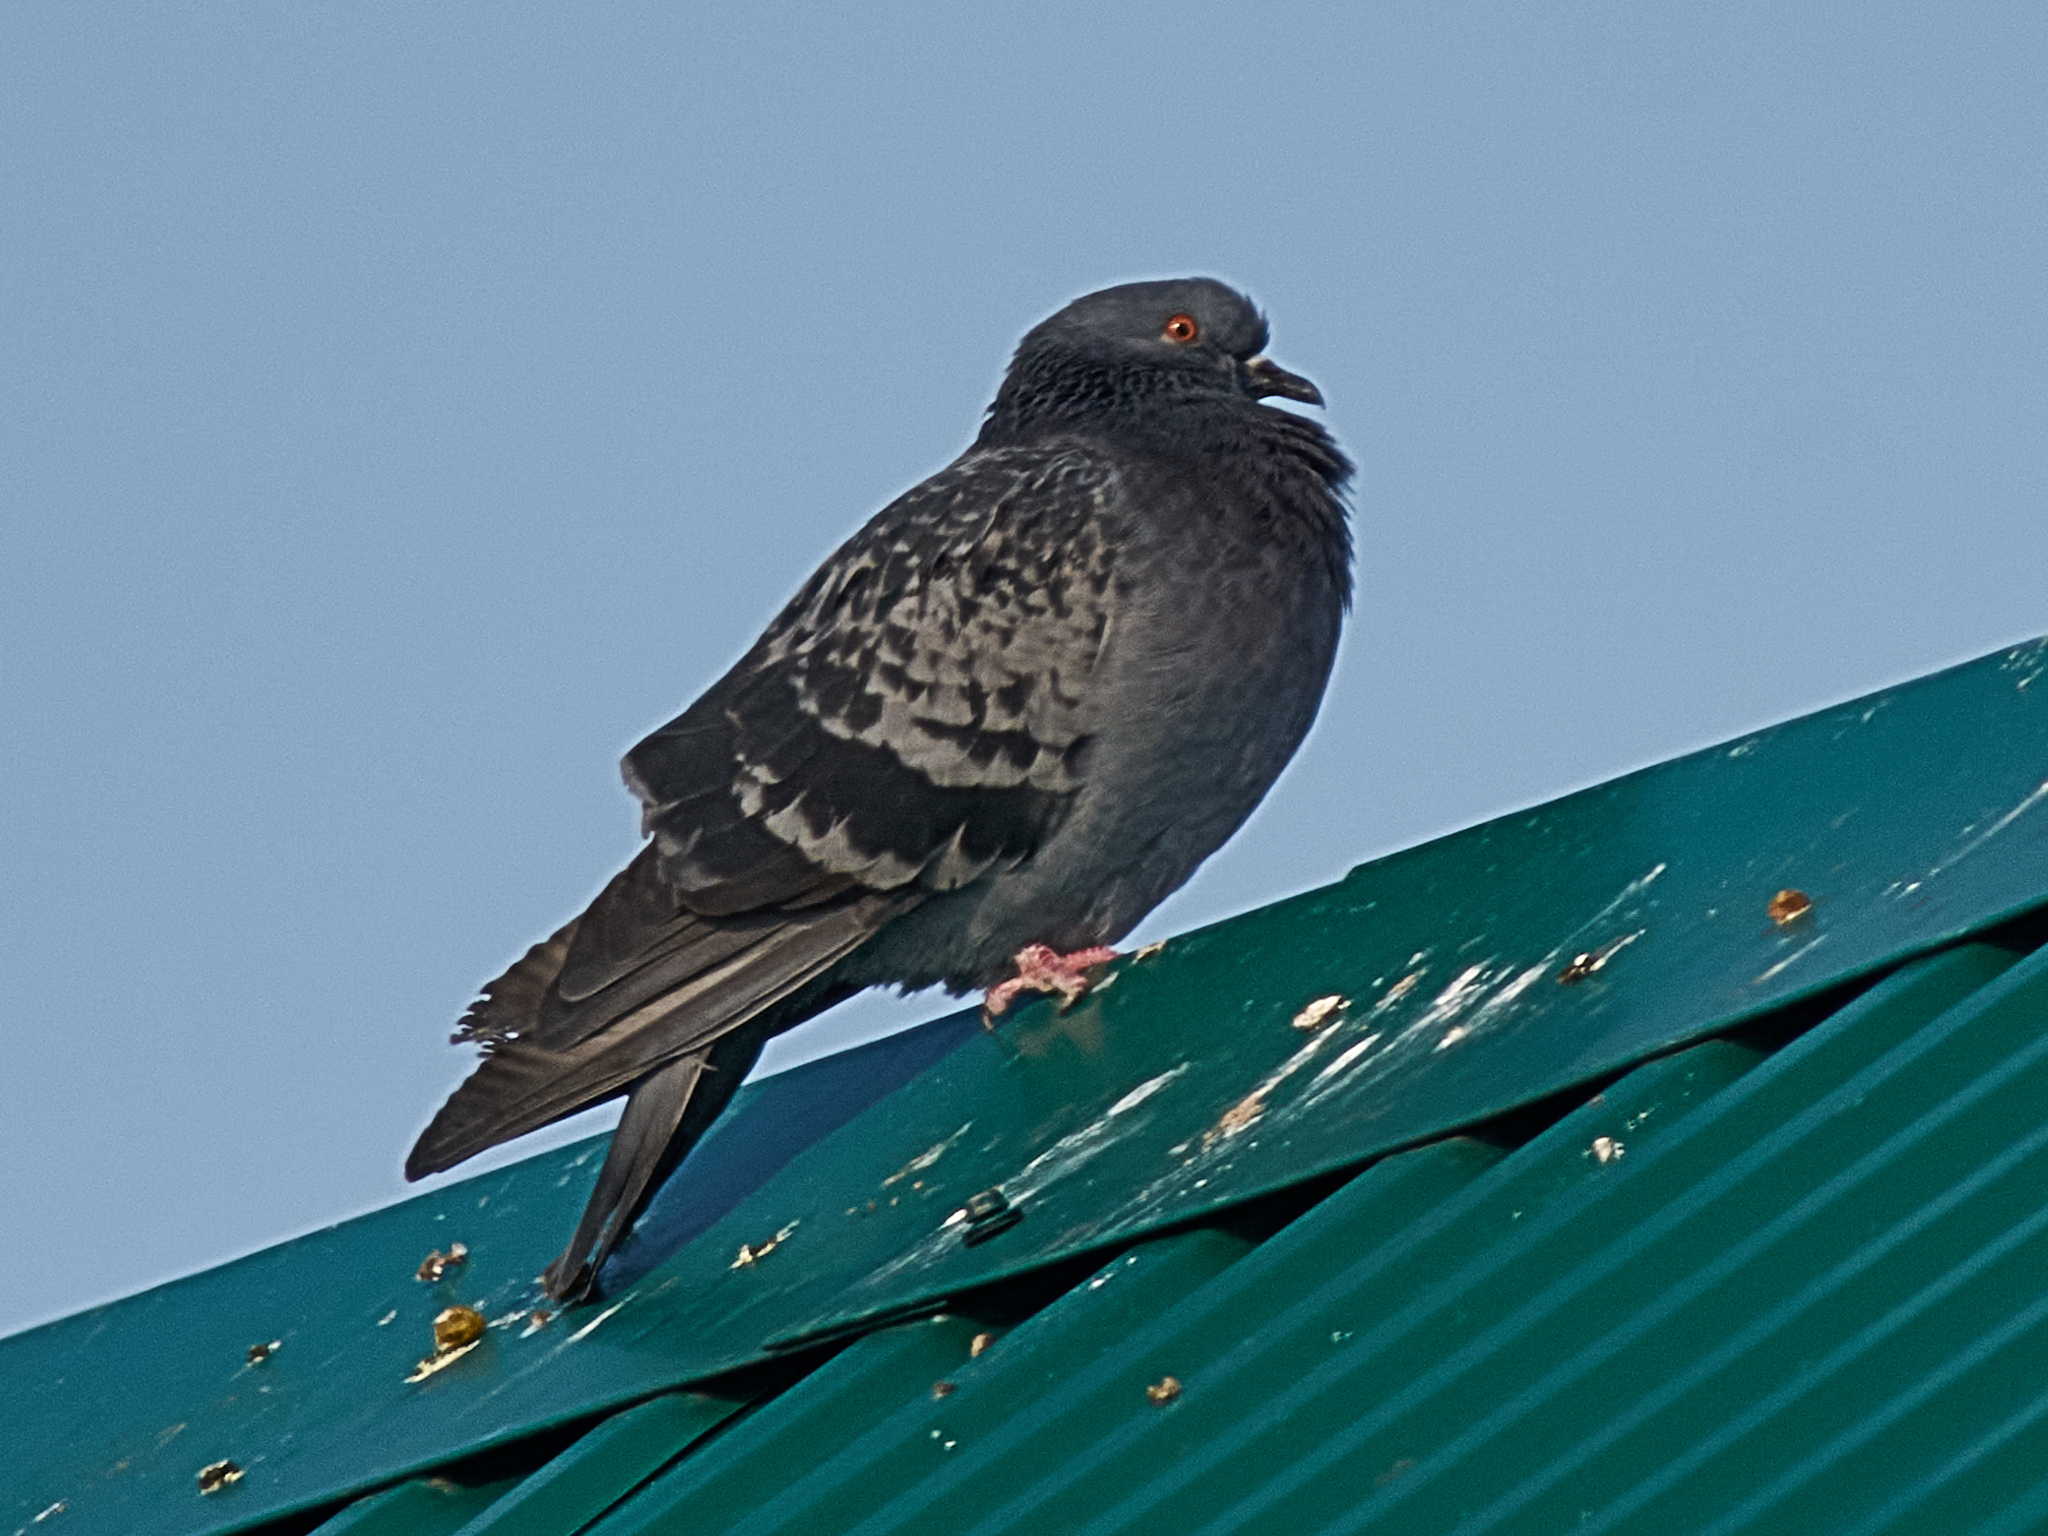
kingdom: Animalia
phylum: Chordata
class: Aves
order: Columbiformes
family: Columbidae
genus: Columba
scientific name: Columba livia
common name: Rock pigeon
